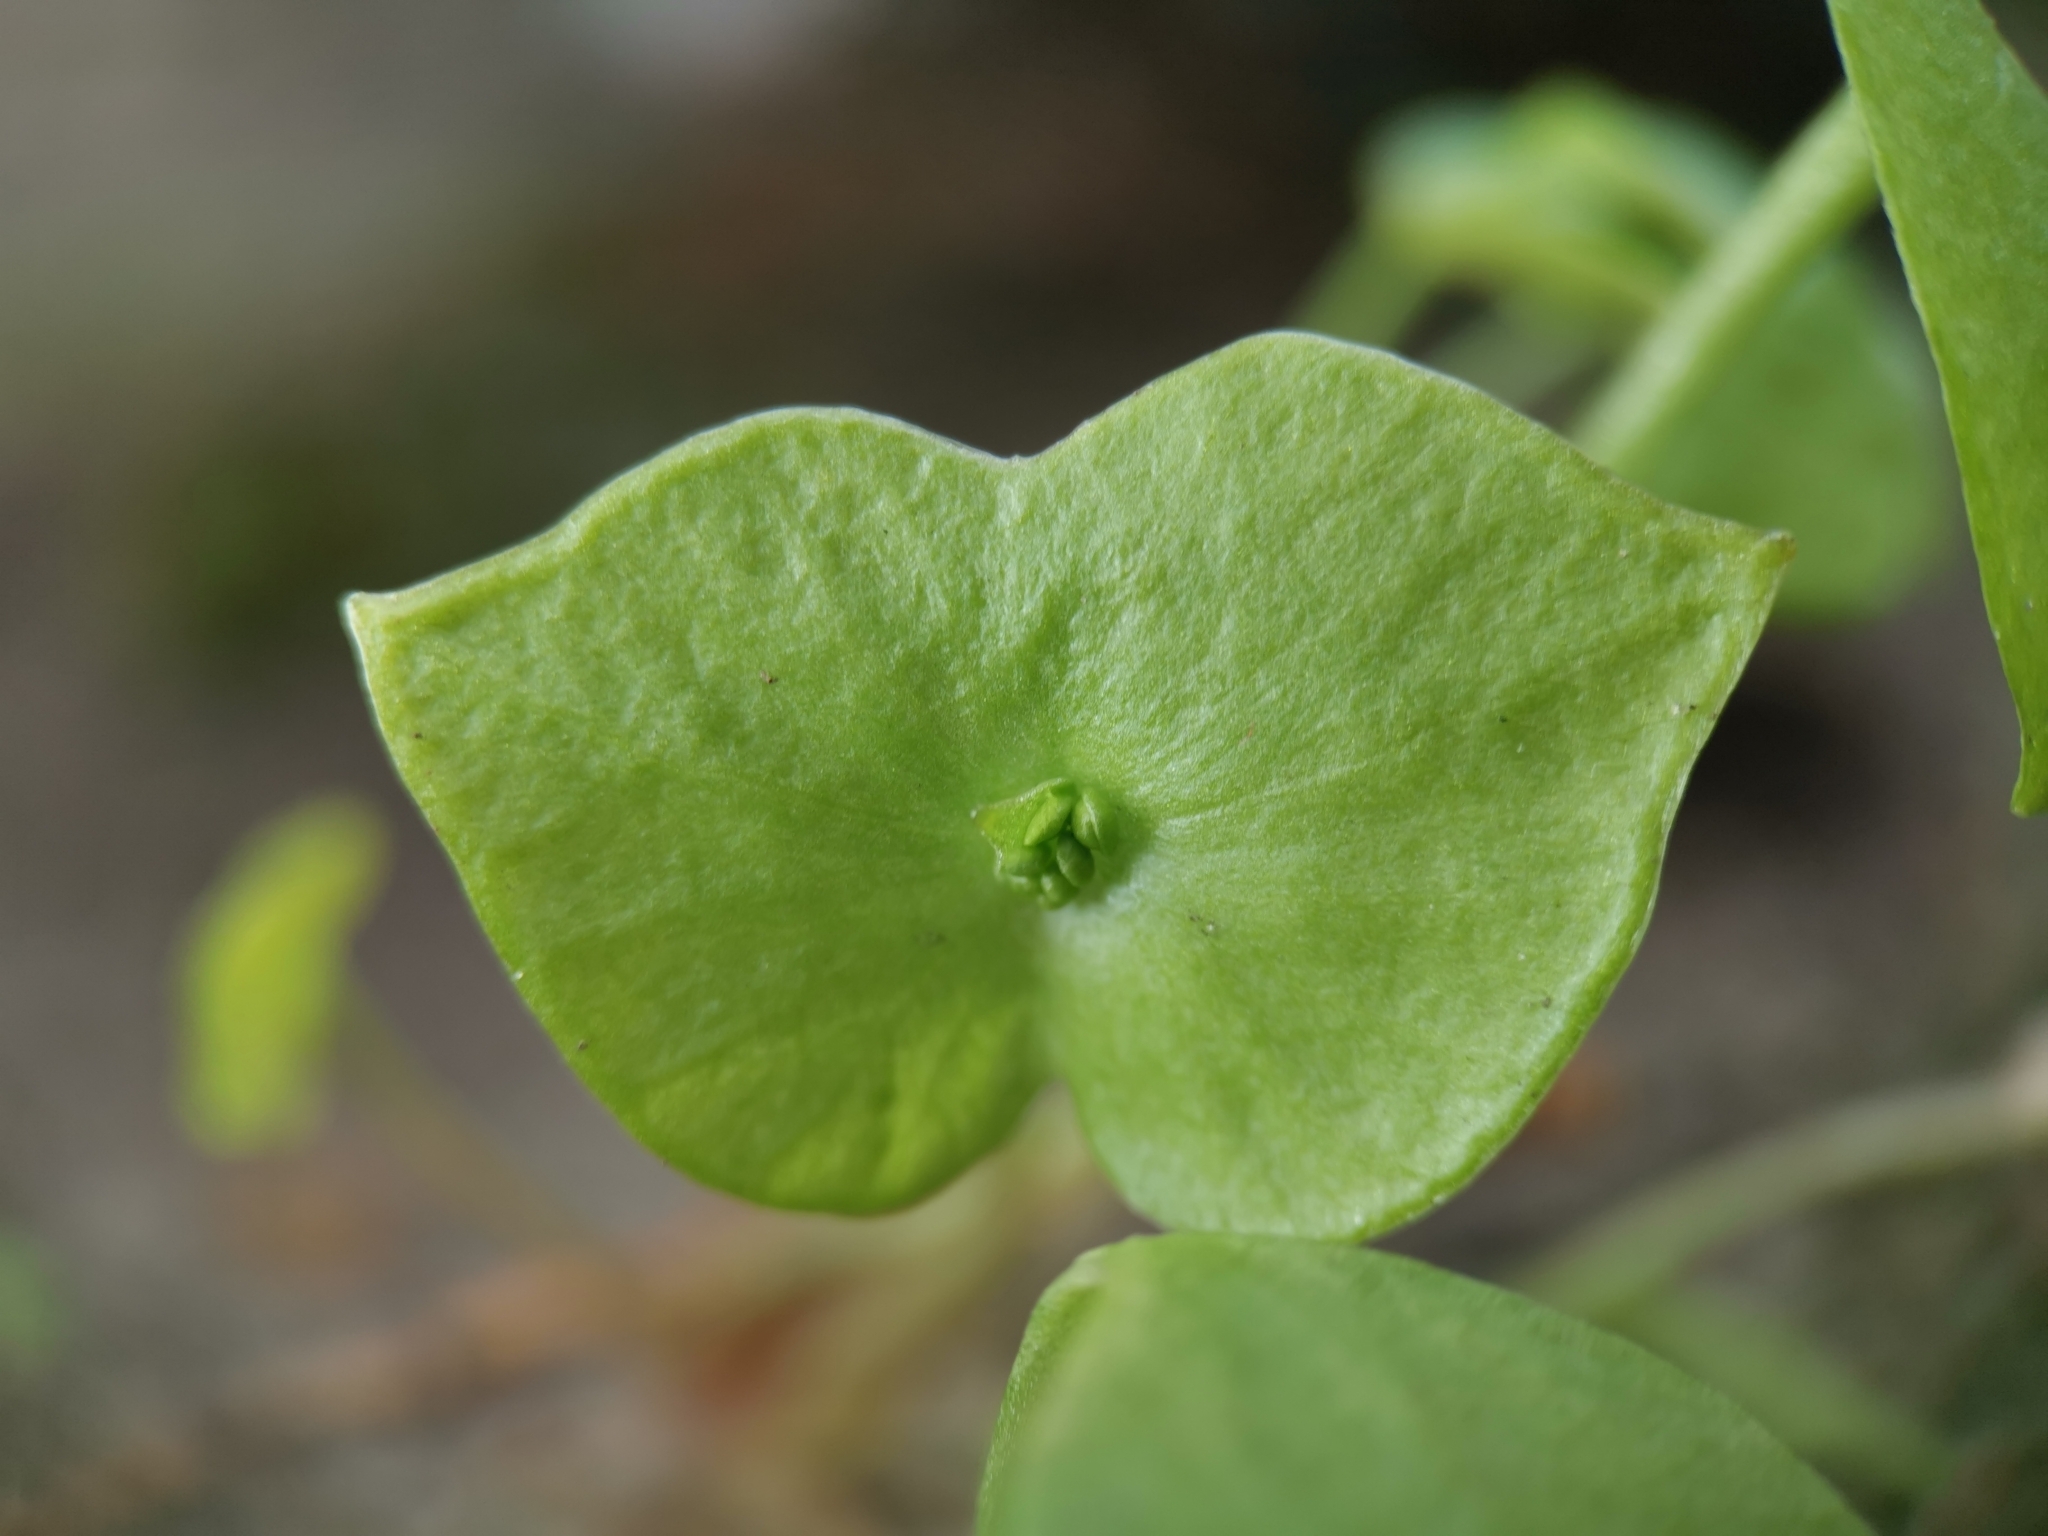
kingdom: Plantae
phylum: Tracheophyta
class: Magnoliopsida
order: Caryophyllales
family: Montiaceae
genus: Claytonia
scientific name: Claytonia perfoliata
